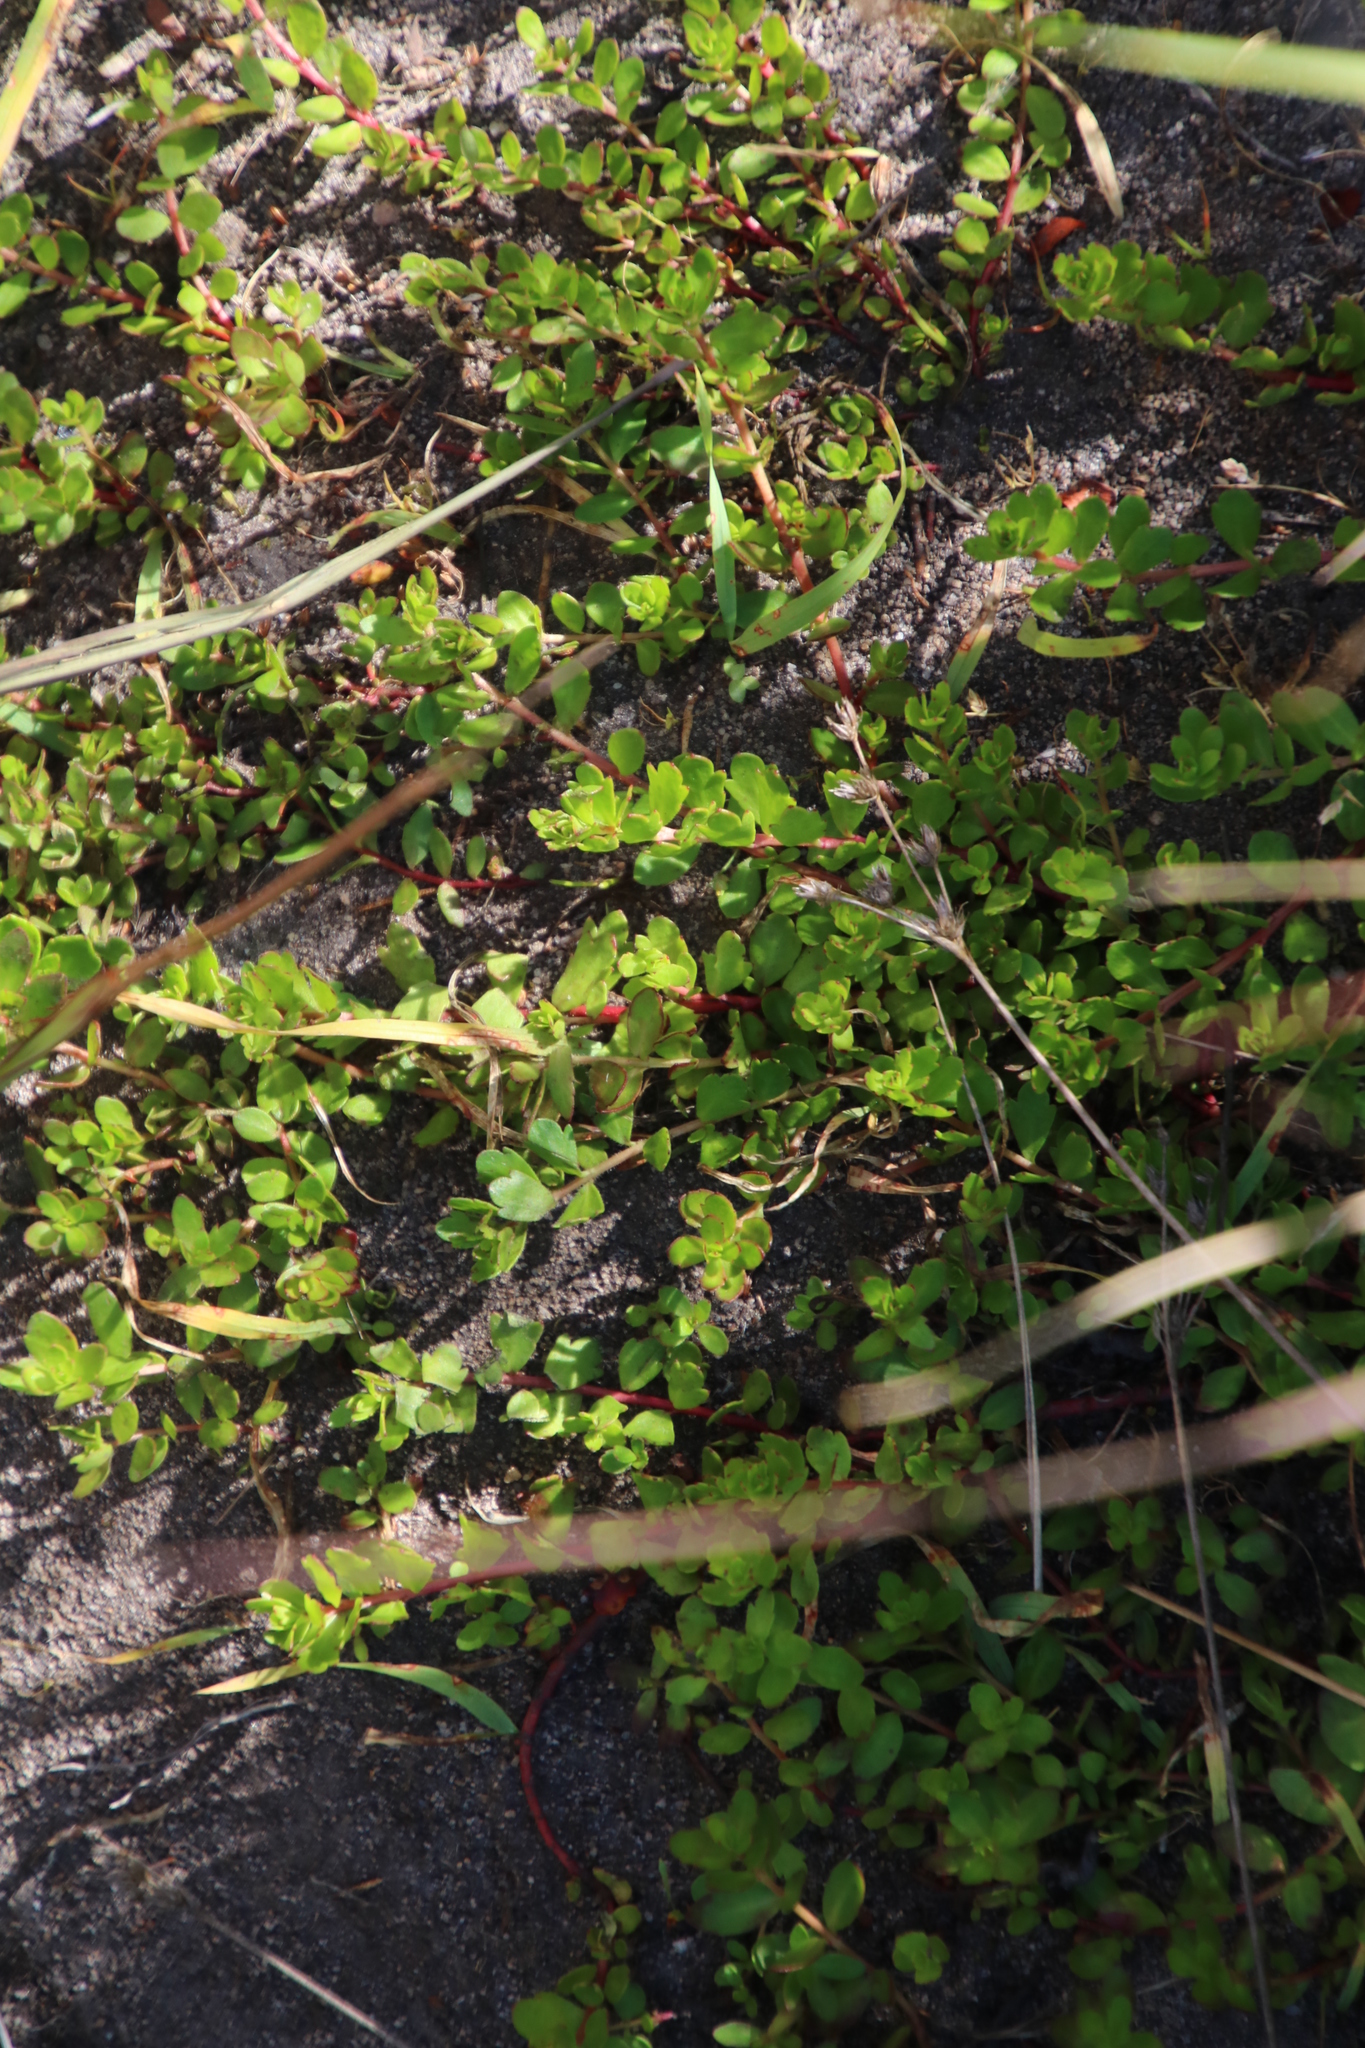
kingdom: Plantae
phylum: Tracheophyta
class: Magnoliopsida
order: Saxifragales
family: Haloragaceae
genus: Laurembergia
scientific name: Laurembergia repens
